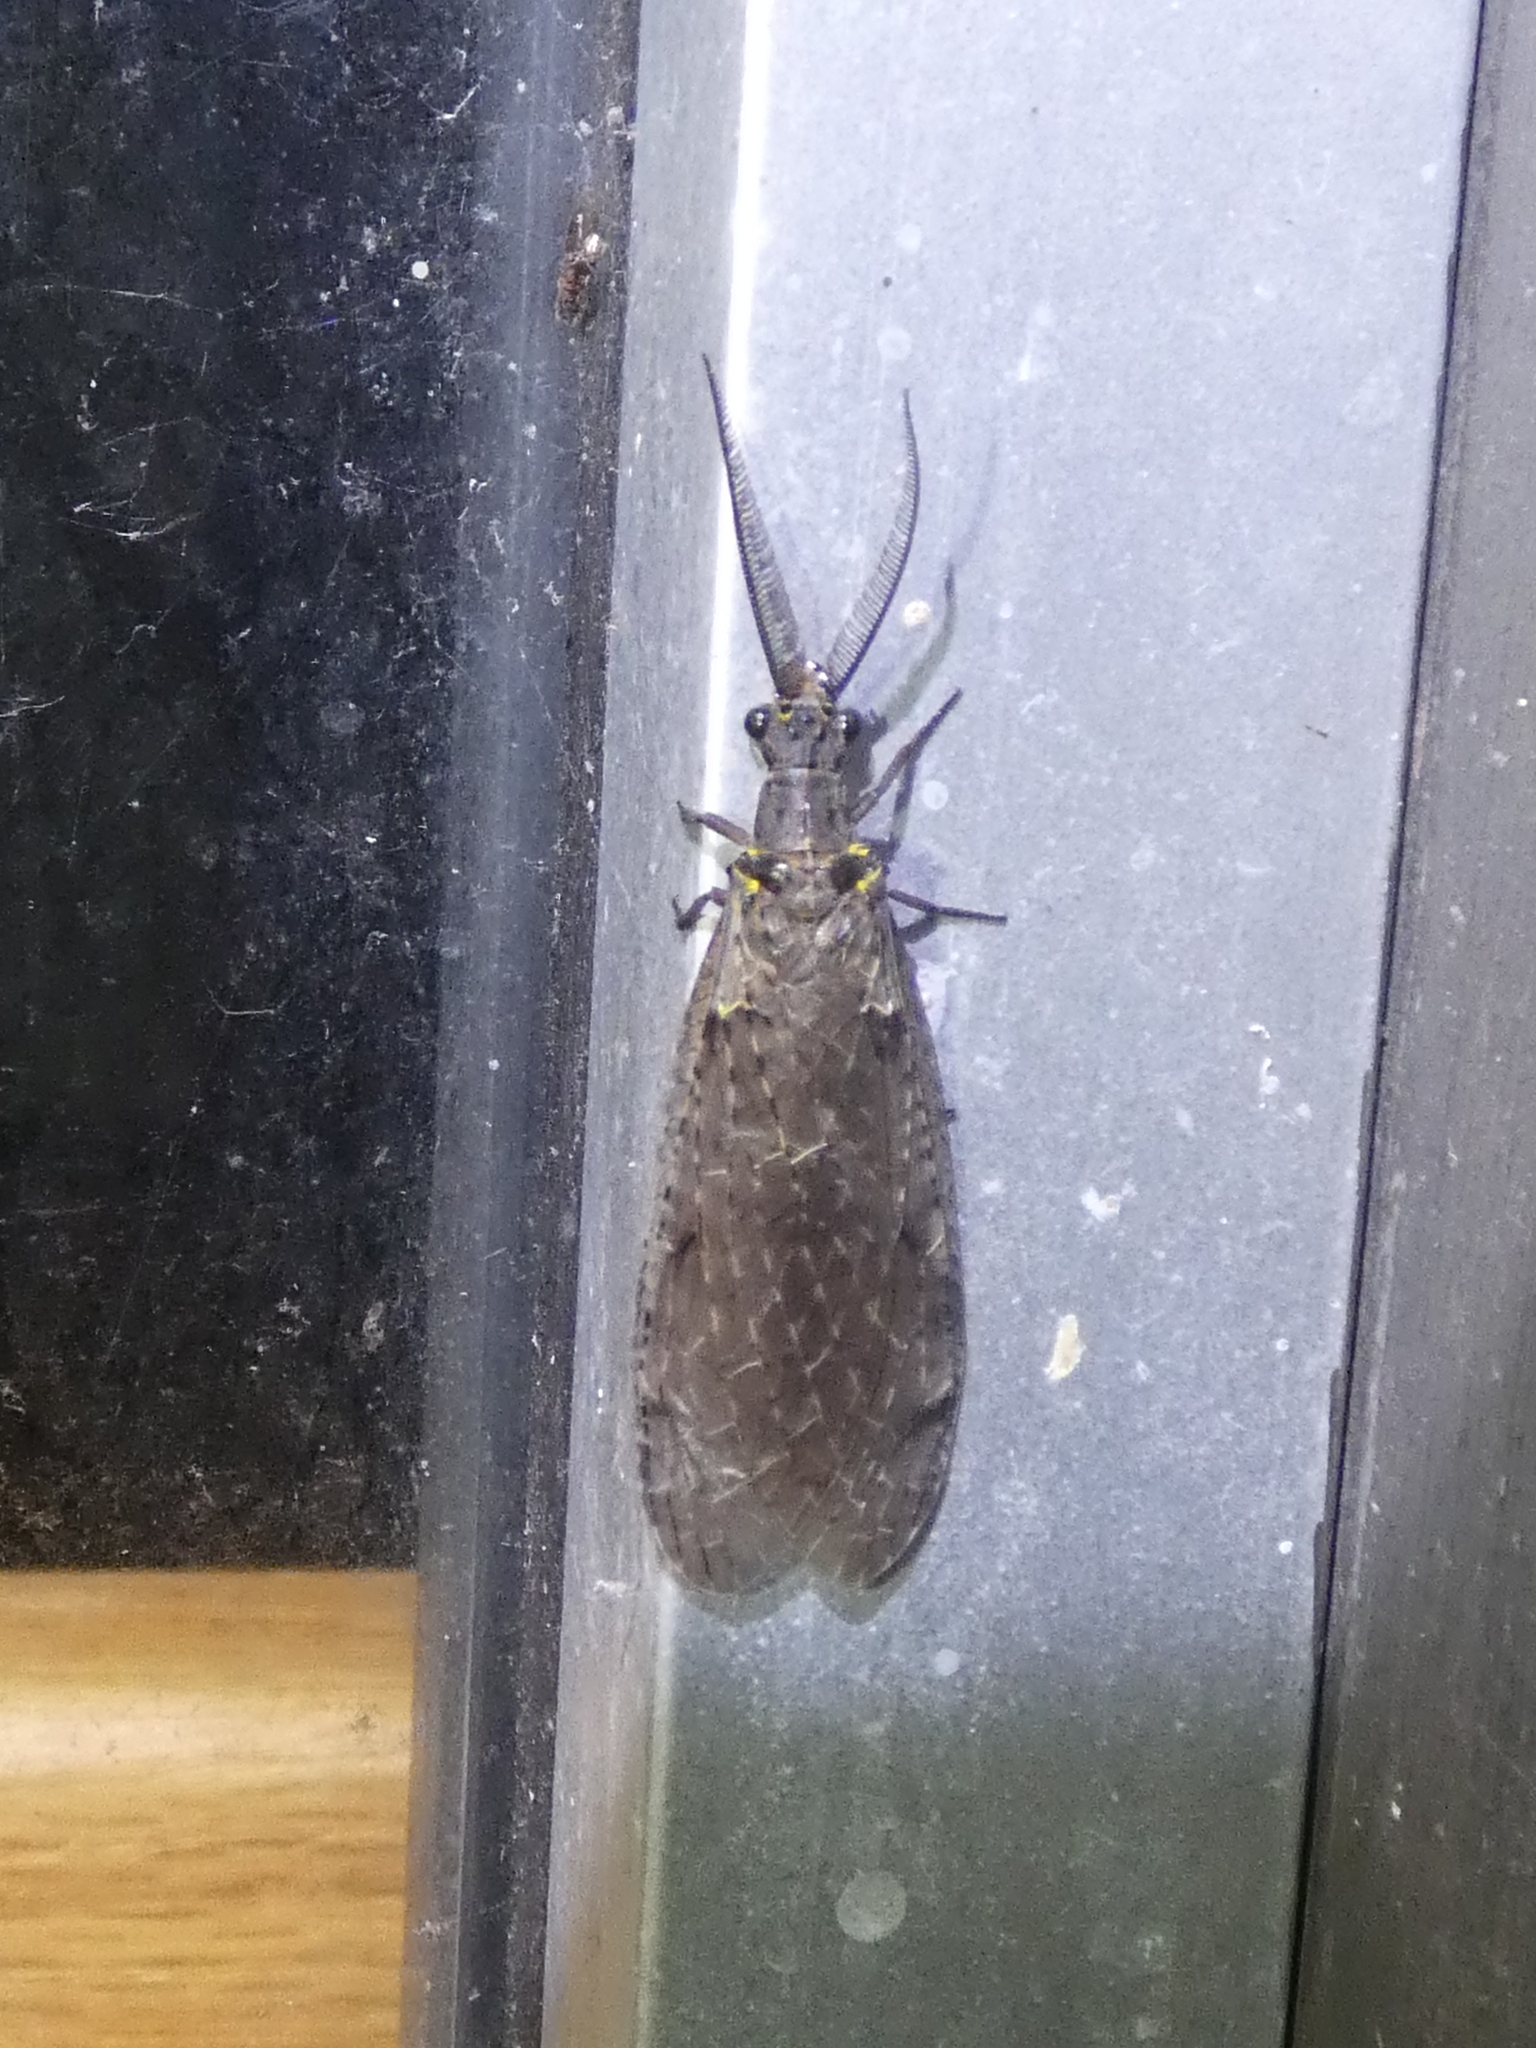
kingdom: Animalia
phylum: Arthropoda
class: Insecta
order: Megaloptera
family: Corydalidae
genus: Chauliodes
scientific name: Chauliodes rastricornis
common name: Spring fishfly
